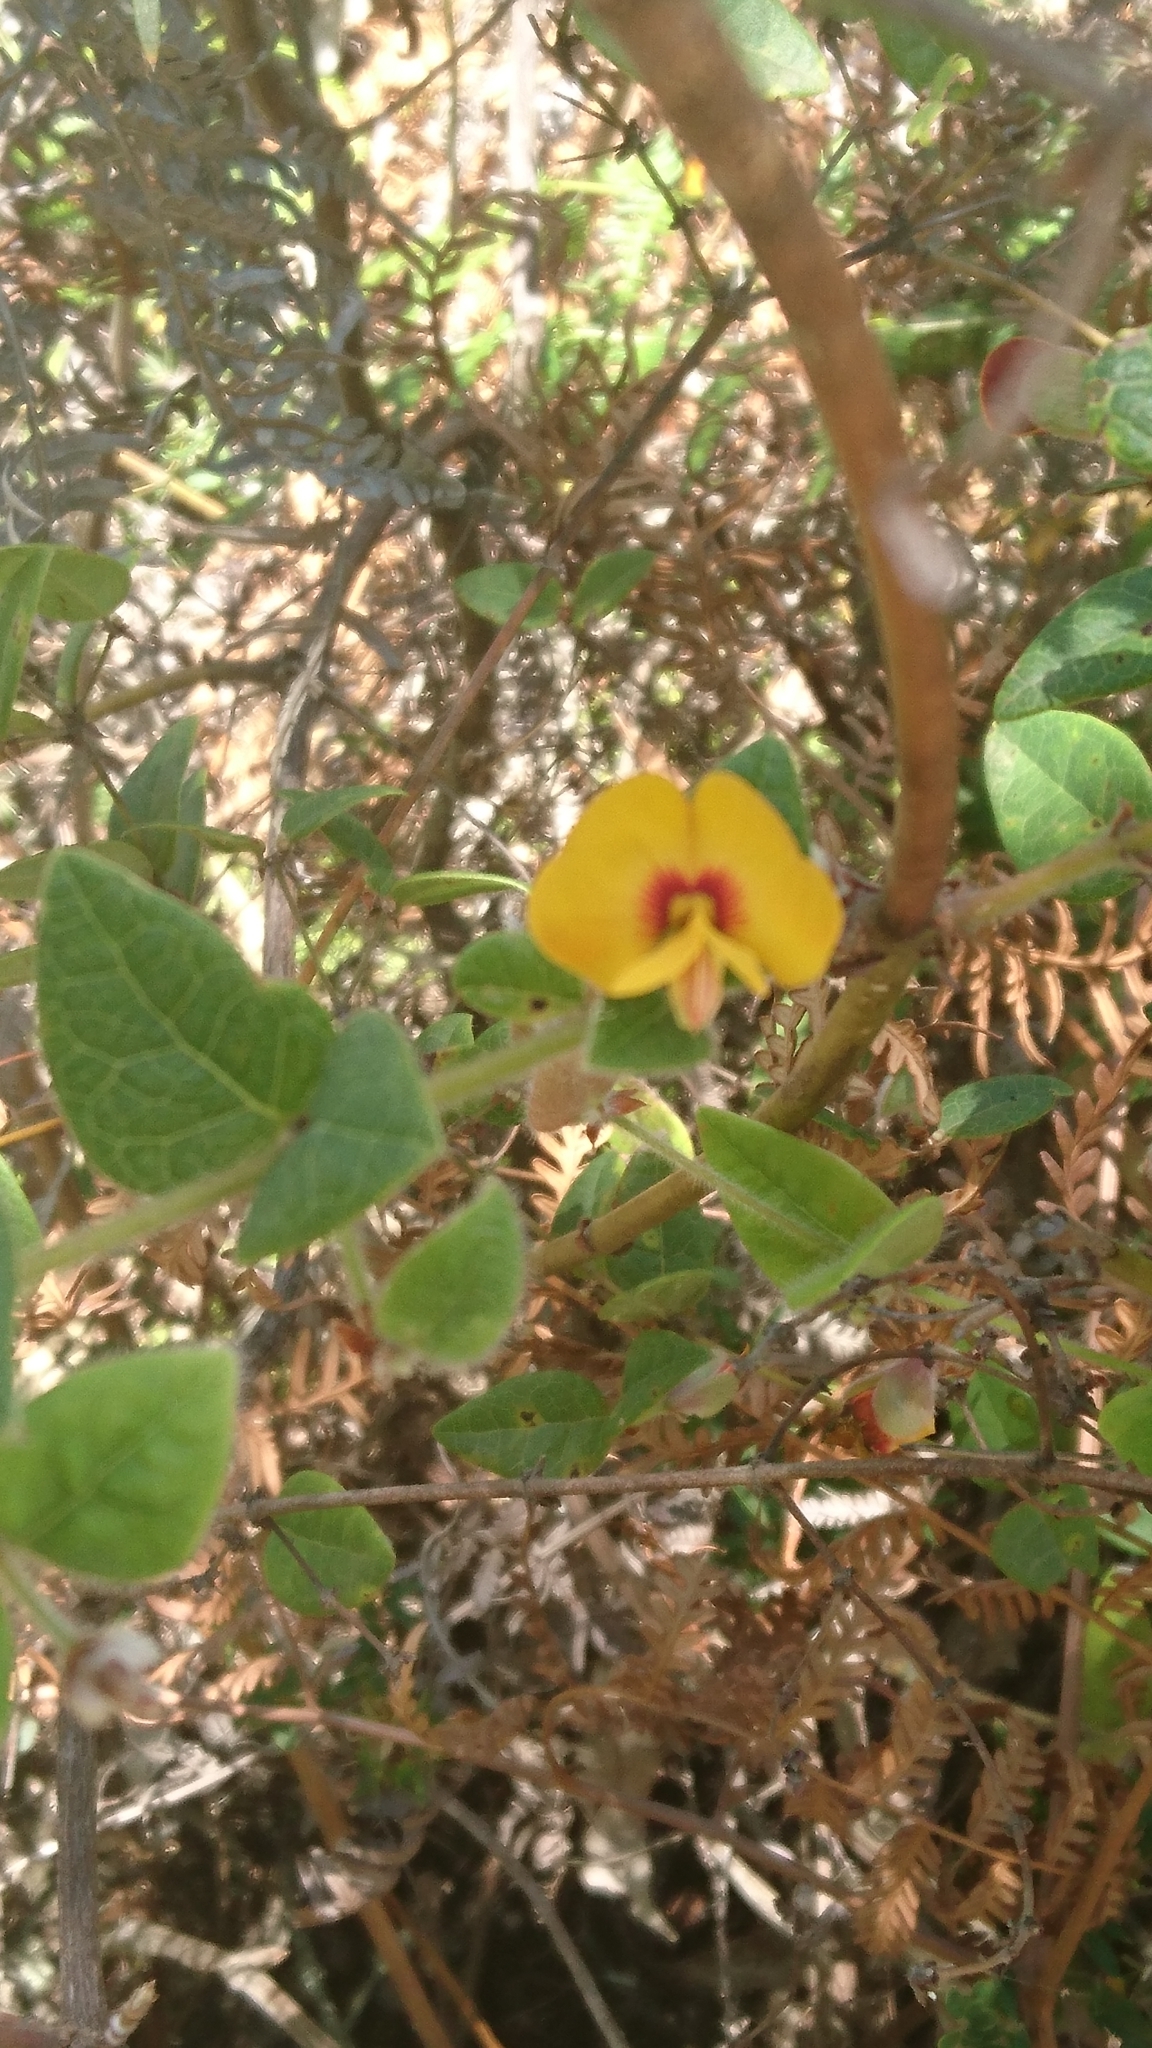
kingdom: Plantae
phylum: Tracheophyta
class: Magnoliopsida
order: Fabales
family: Fabaceae
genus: Platylobium
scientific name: Platylobium formosum
